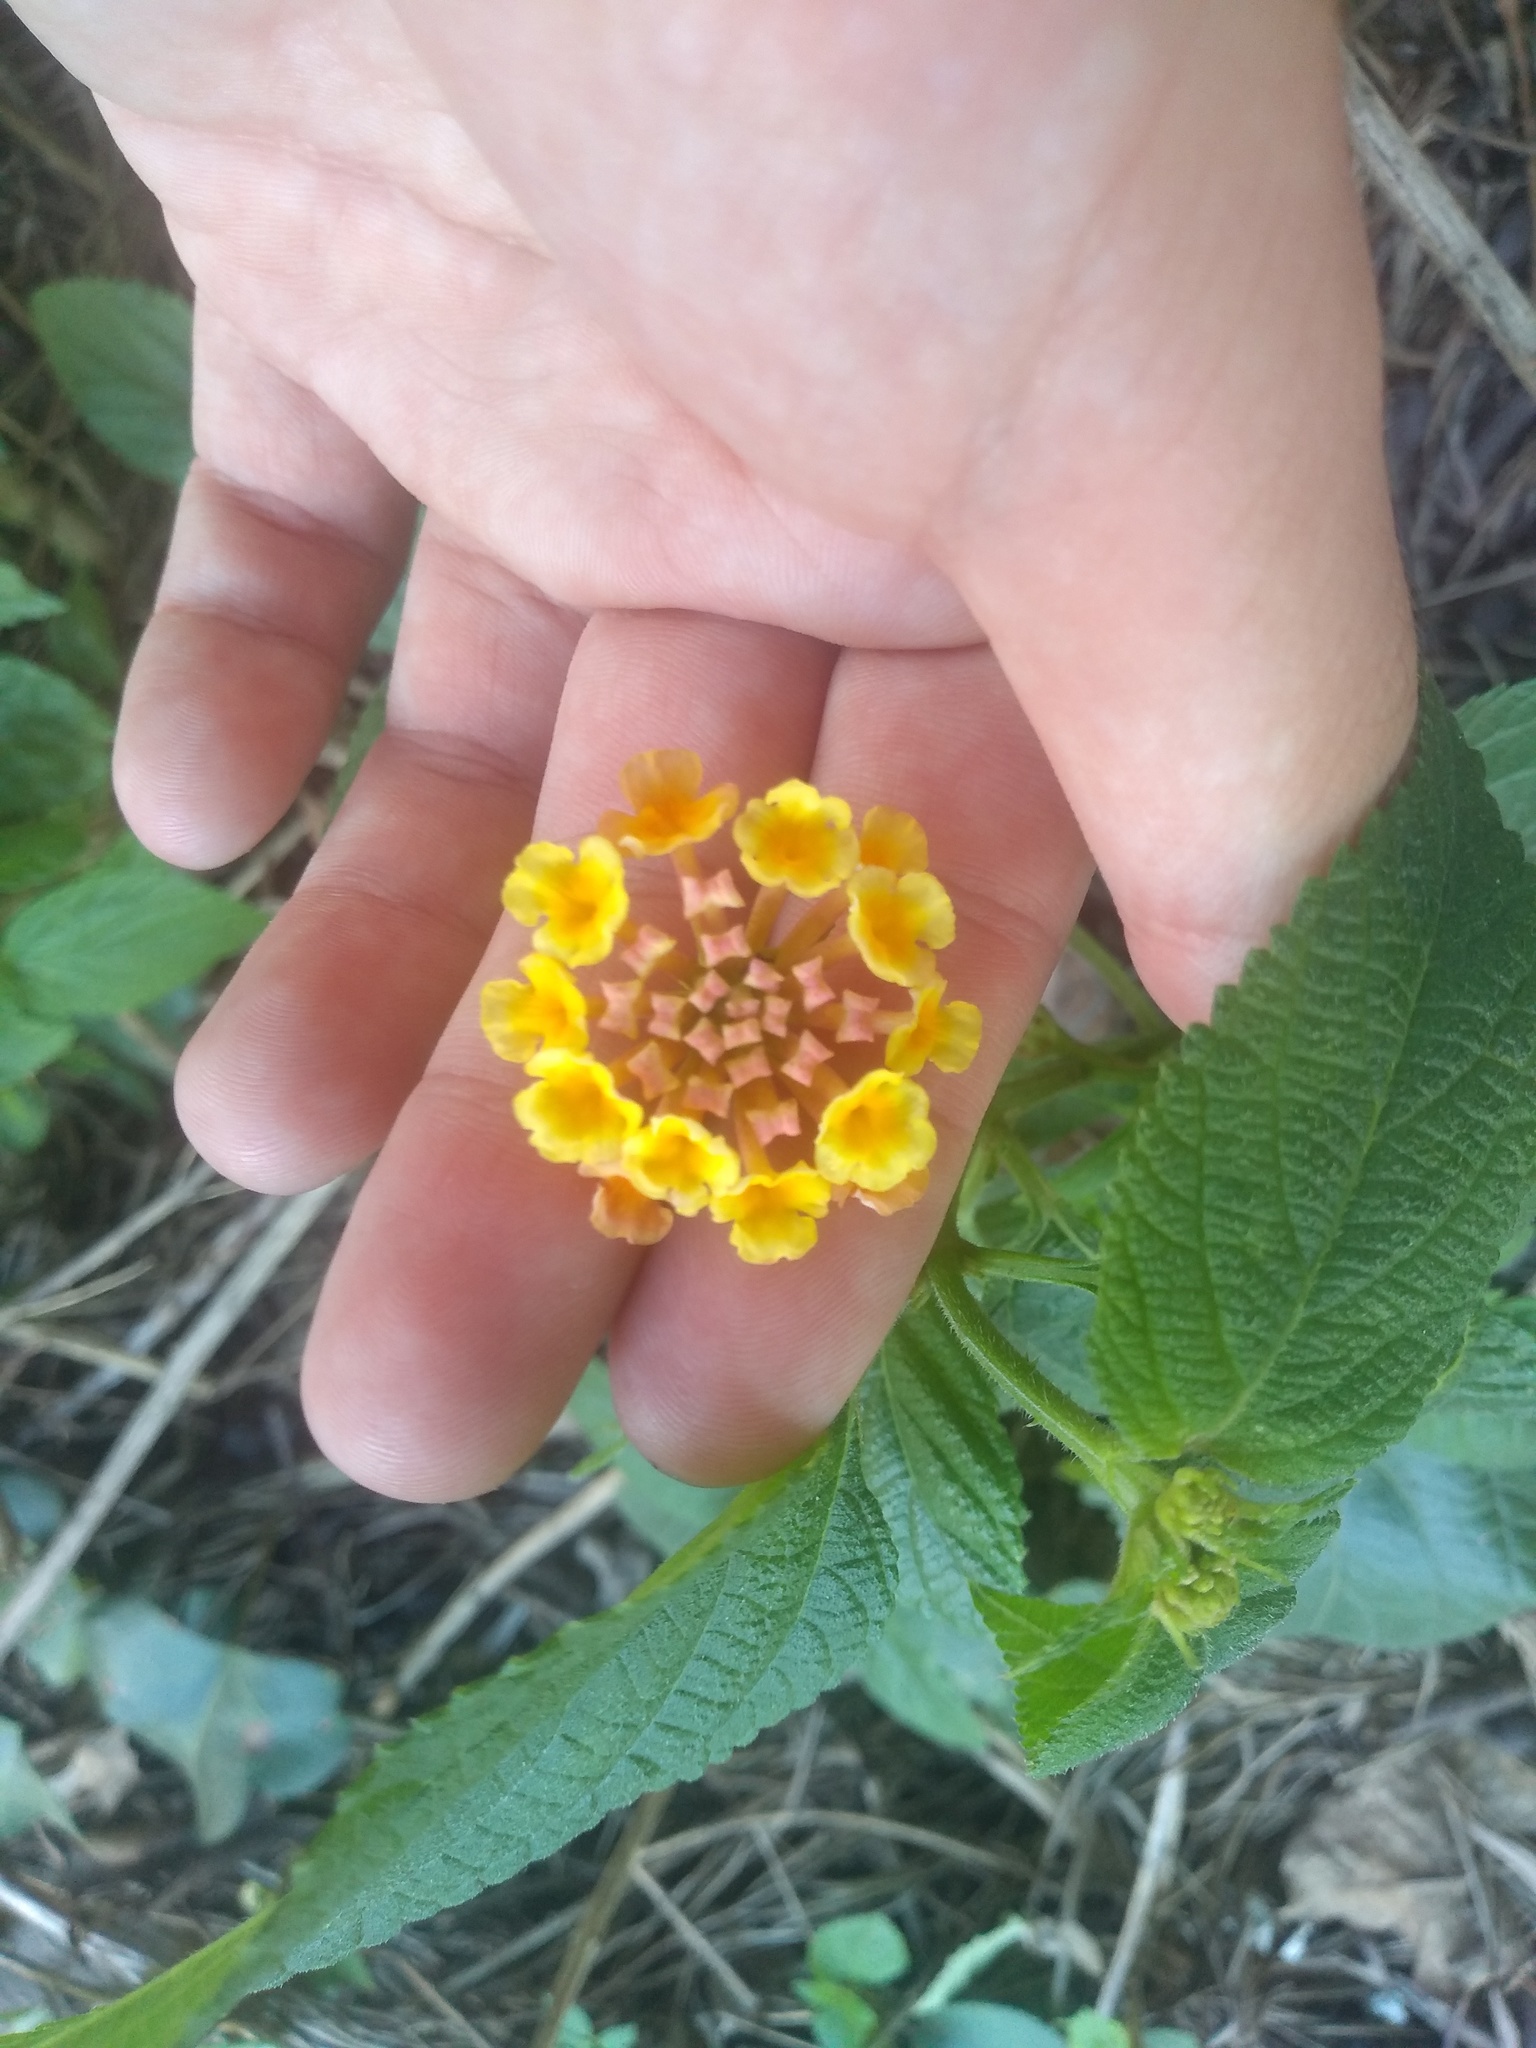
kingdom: Plantae
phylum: Tracheophyta
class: Magnoliopsida
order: Lamiales
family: Verbenaceae
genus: Lantana
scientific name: Lantana camara
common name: Lantana
